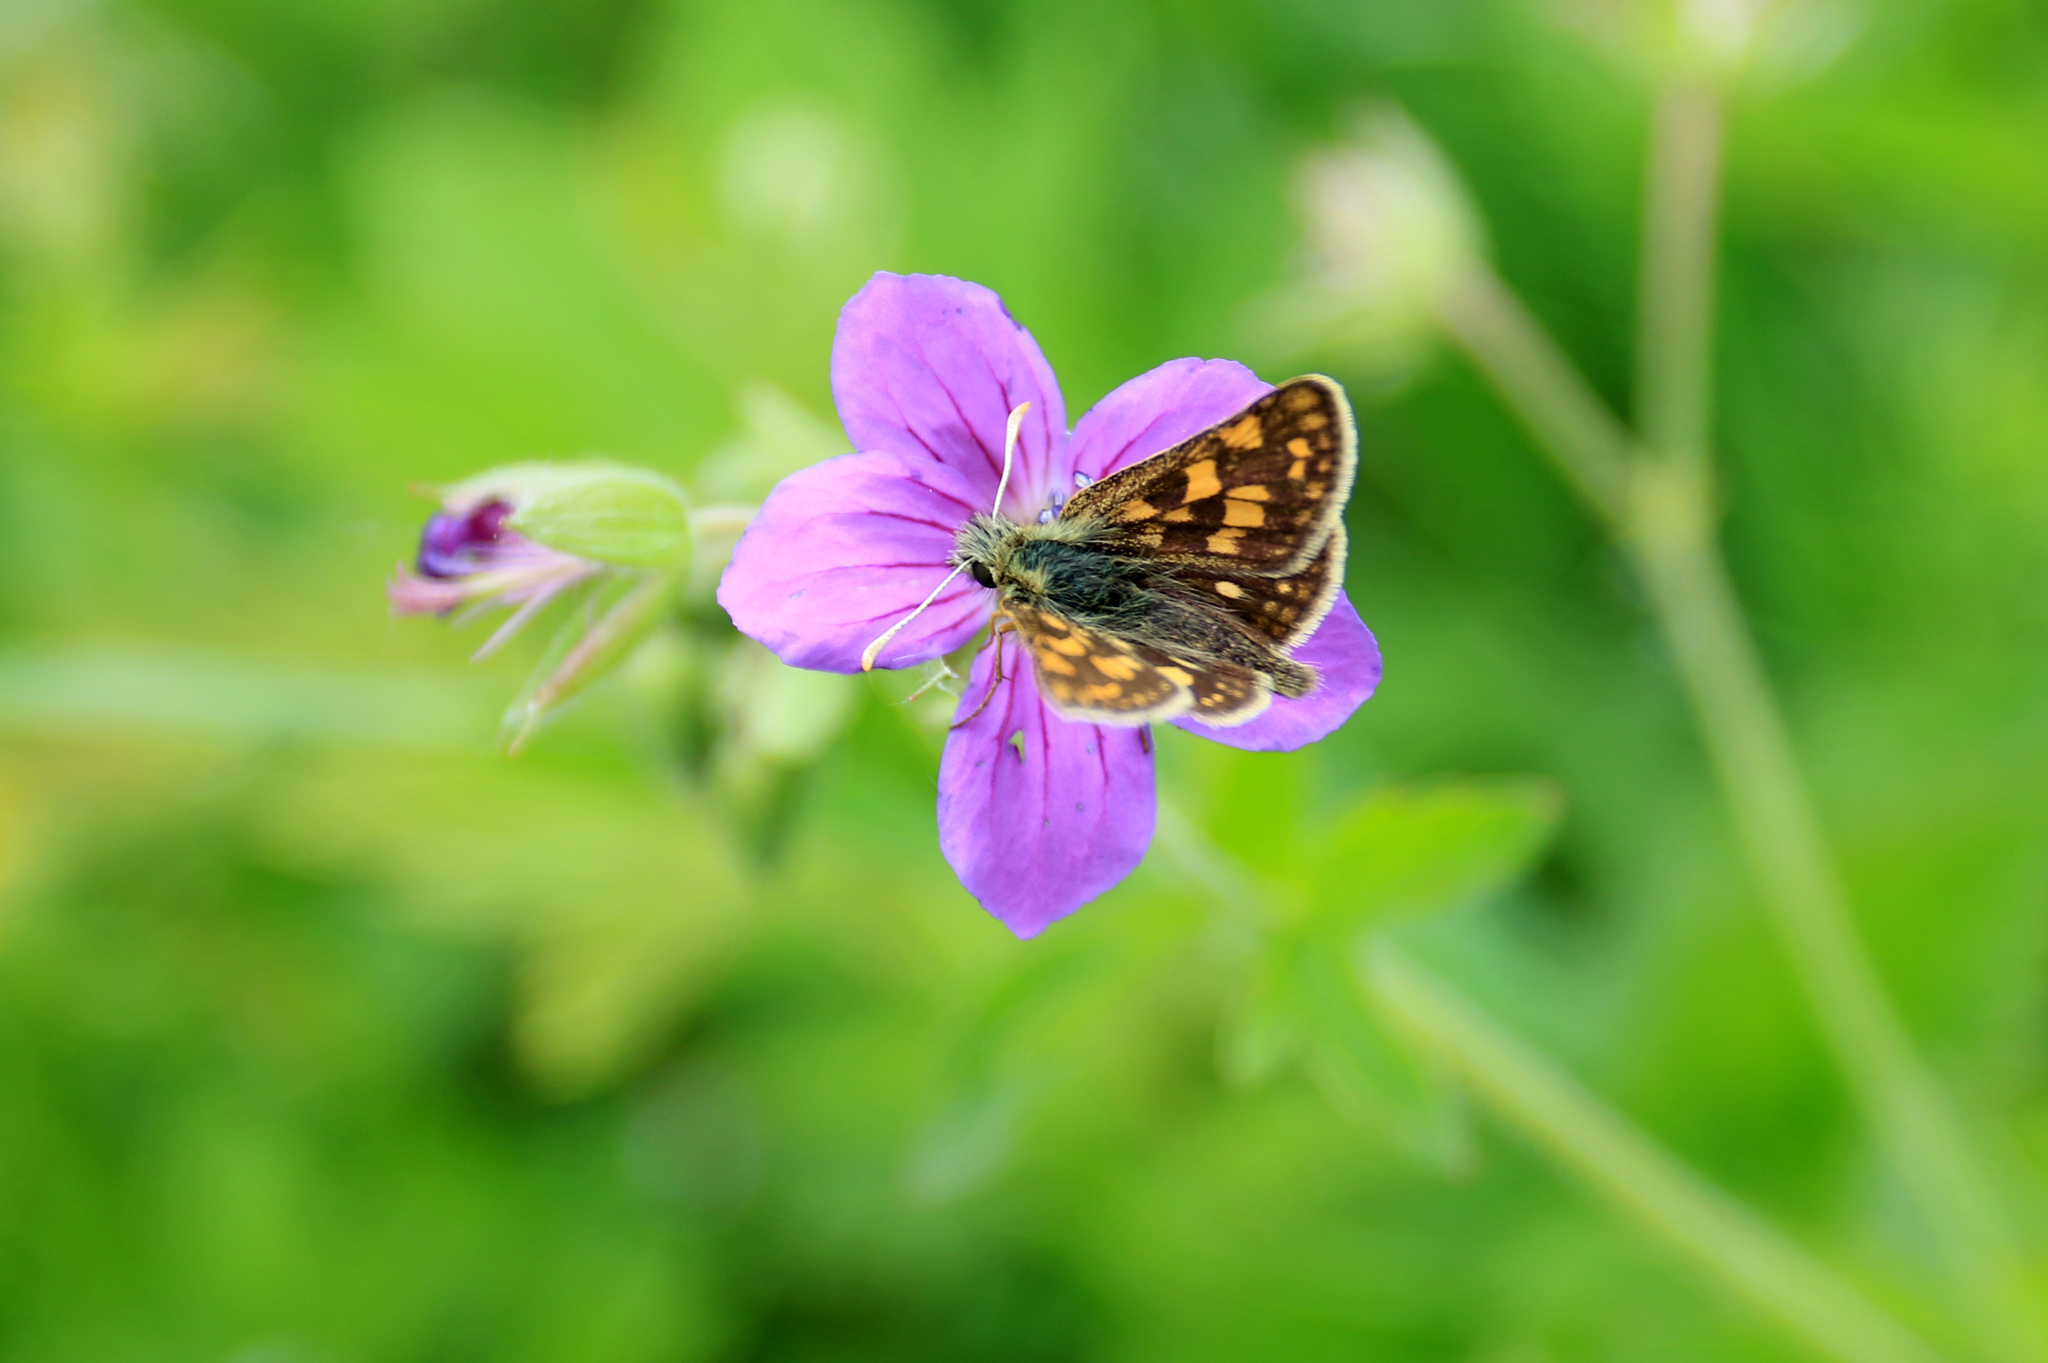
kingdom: Animalia
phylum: Arthropoda
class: Insecta
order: Lepidoptera
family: Hesperiidae
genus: Carterocephalus
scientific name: Carterocephalus palaemon
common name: Chequered skipper
